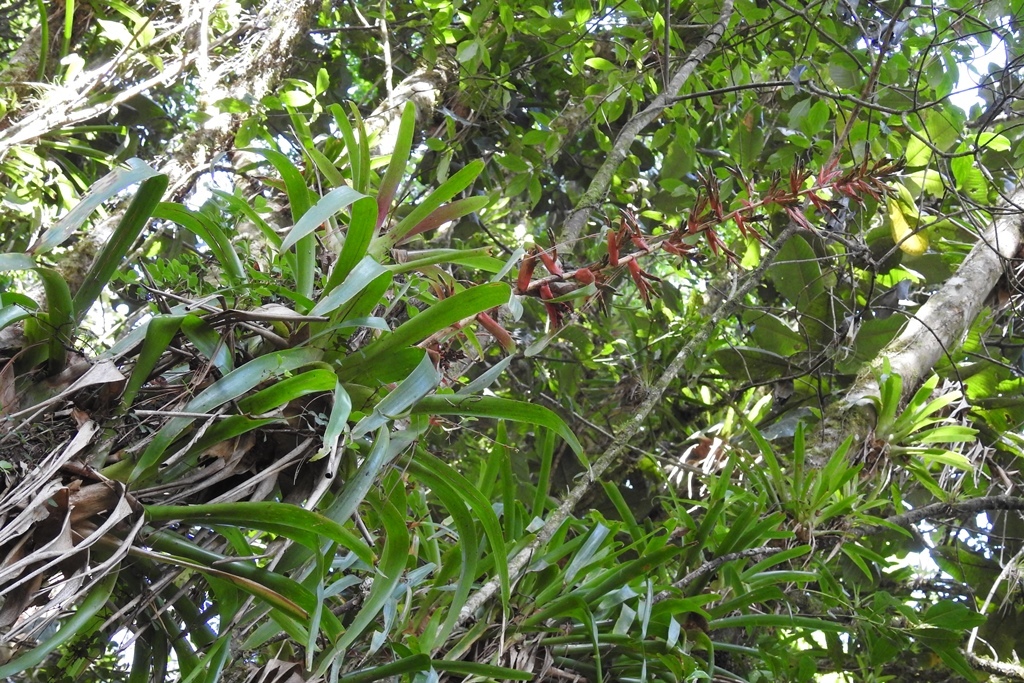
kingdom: Plantae
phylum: Tracheophyta
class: Liliopsida
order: Poales
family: Bromeliaceae
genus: Tillandsia
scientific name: Tillandsia guatemalensis
